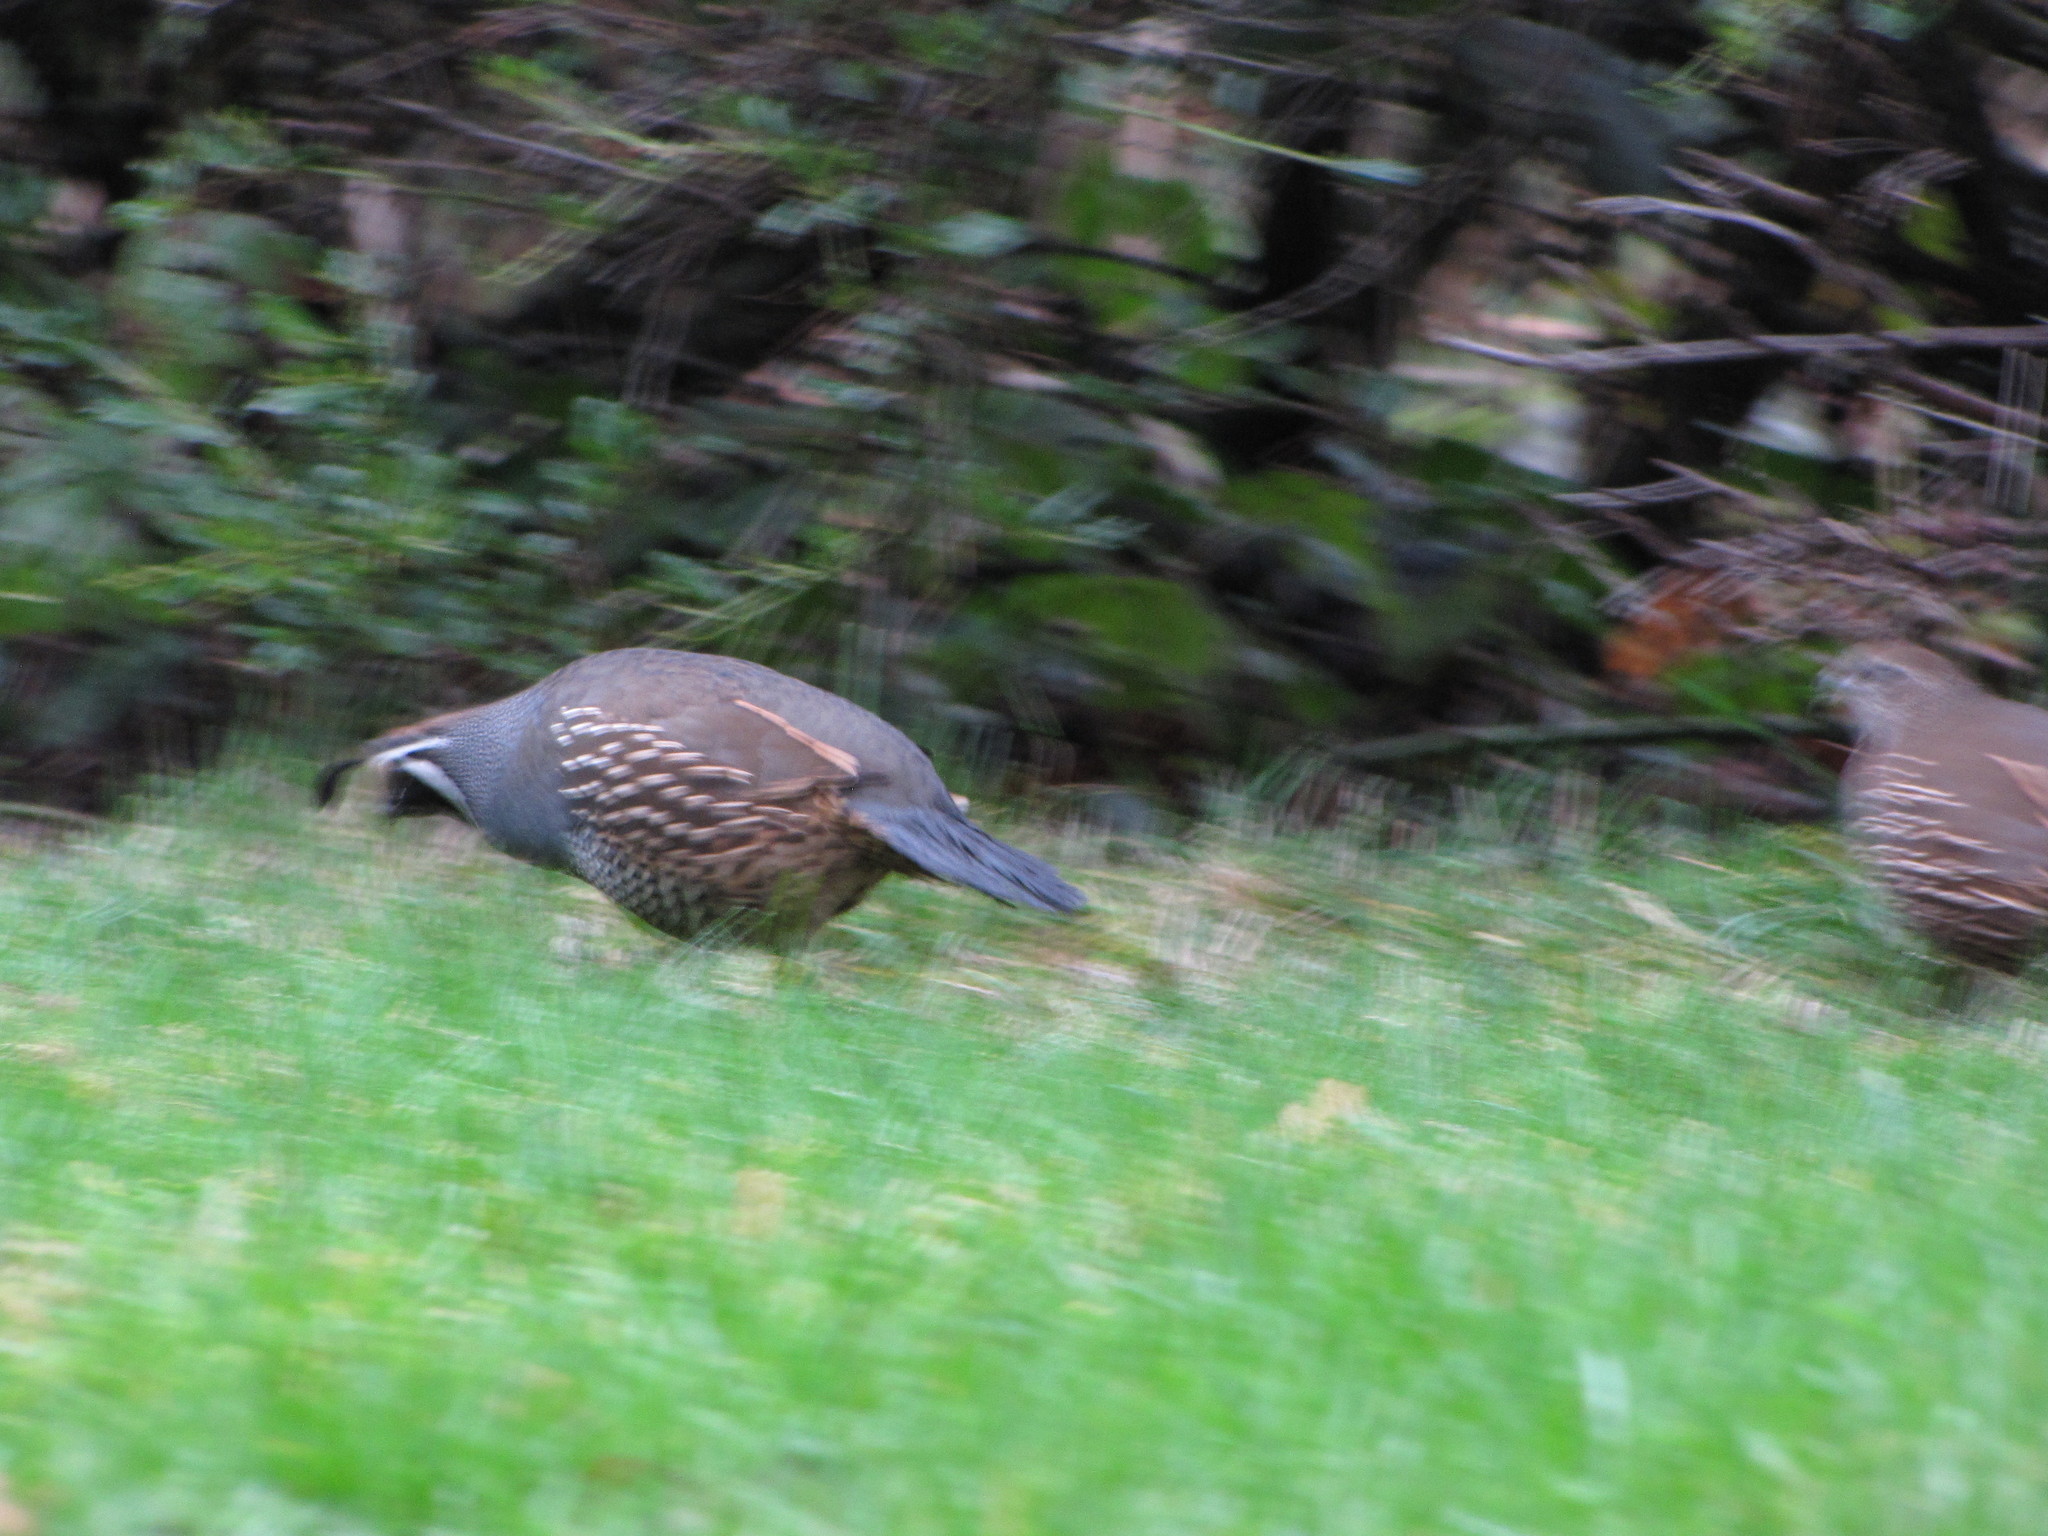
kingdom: Animalia
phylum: Chordata
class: Aves
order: Galliformes
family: Odontophoridae
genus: Callipepla
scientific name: Callipepla californica
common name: California quail
